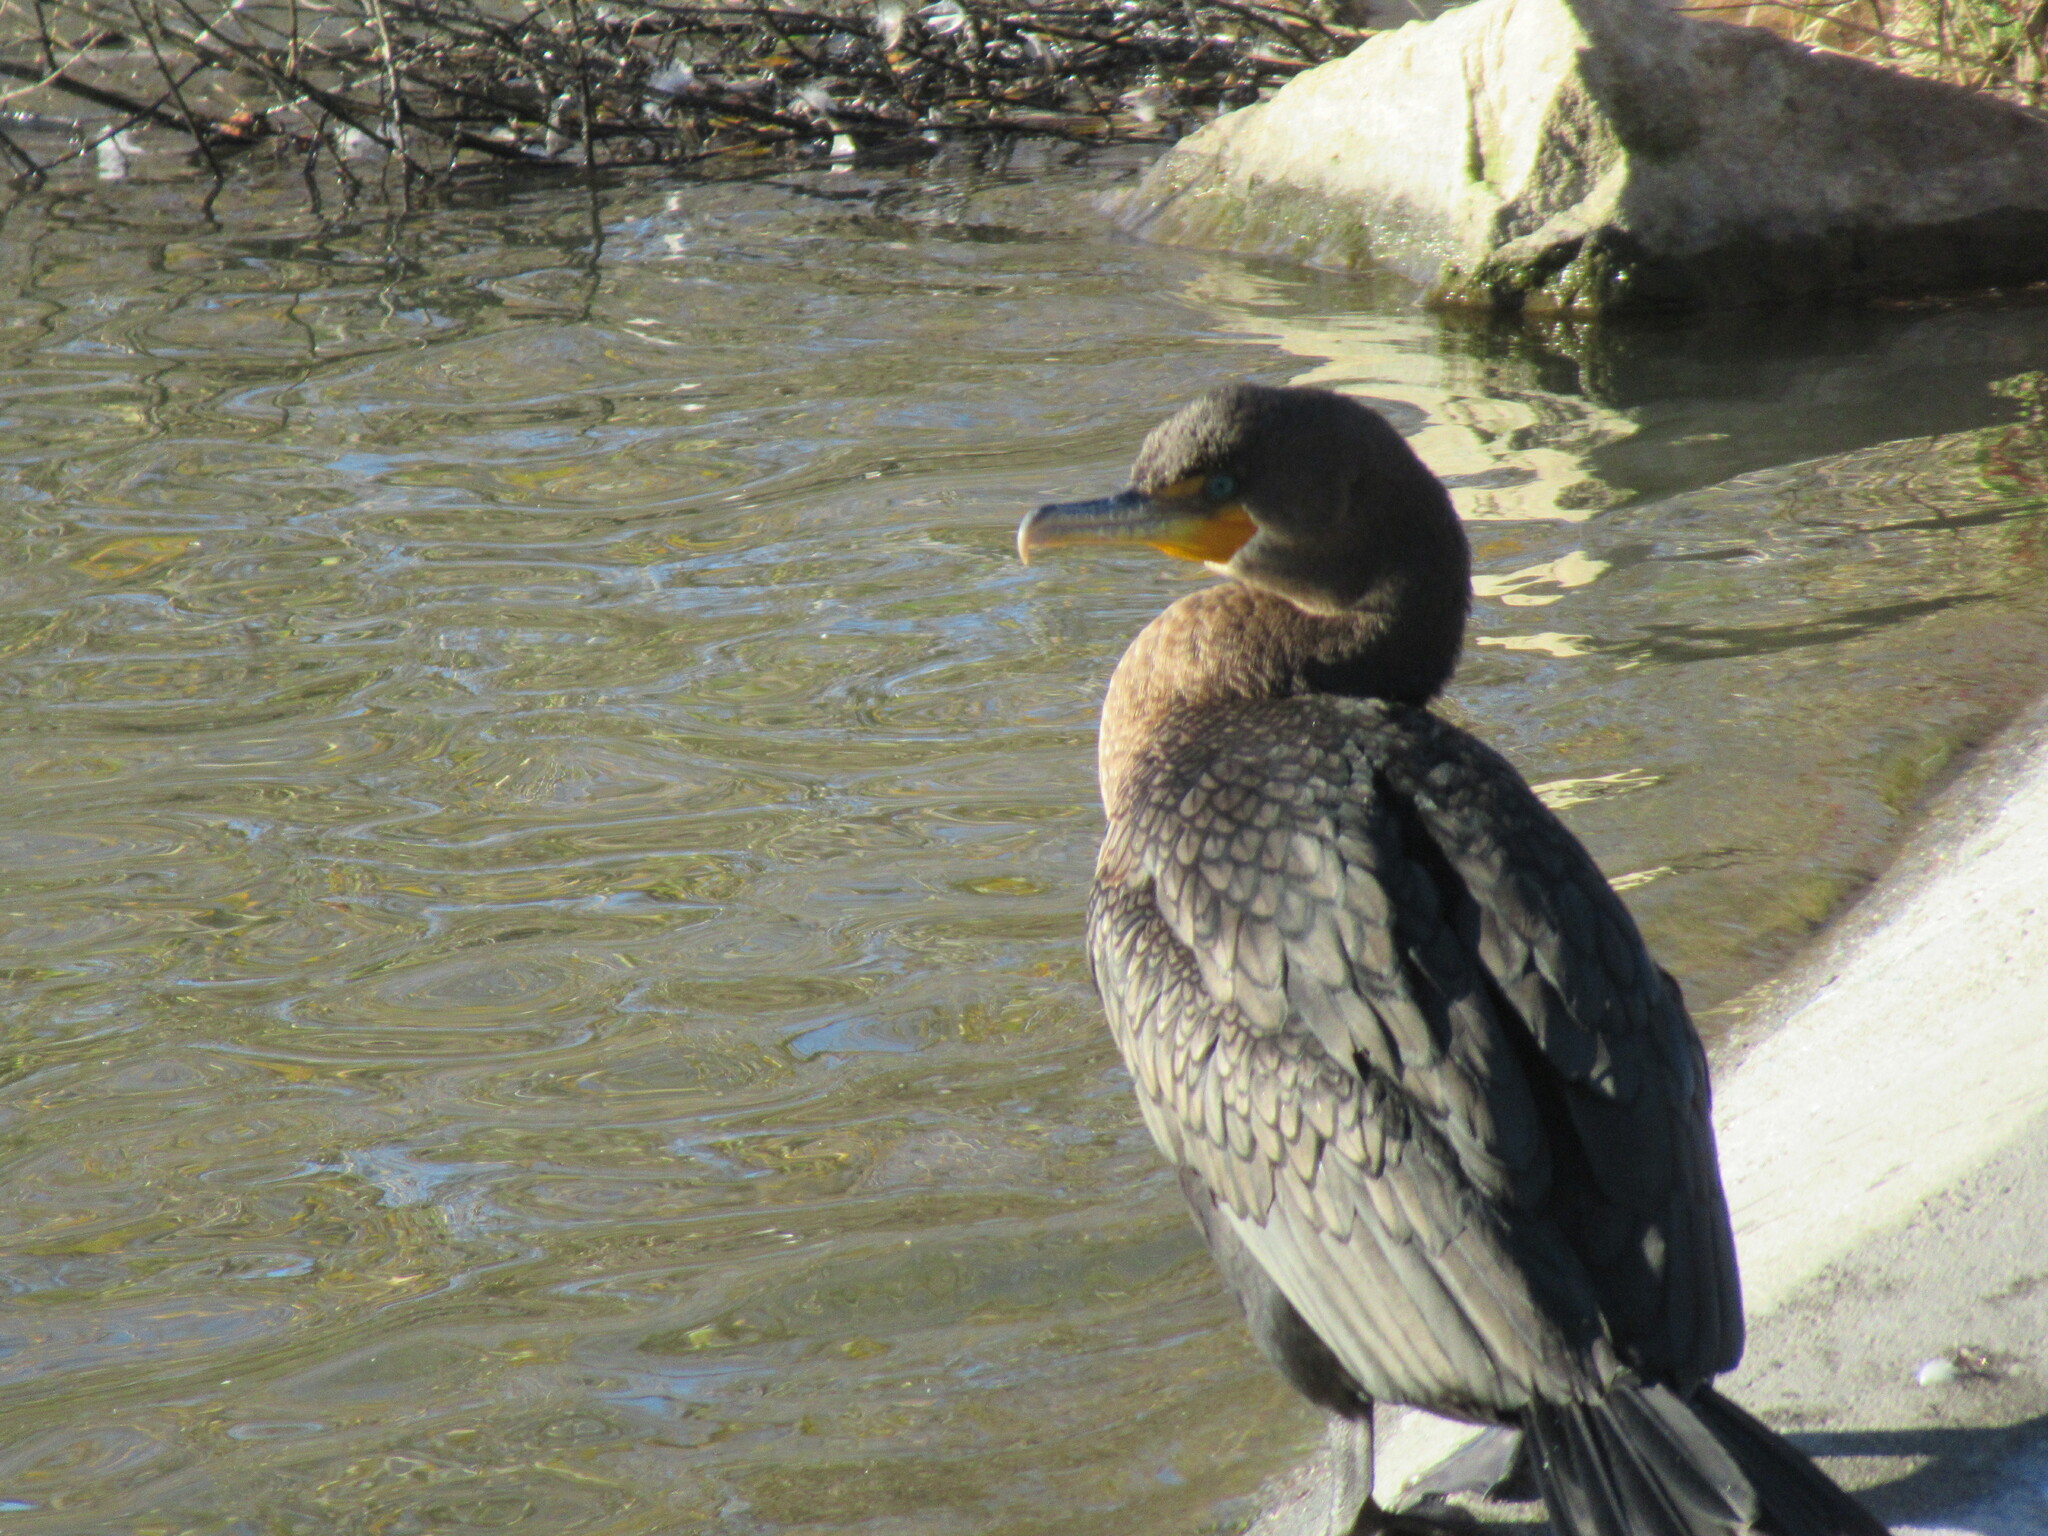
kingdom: Animalia
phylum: Chordata
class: Aves
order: Suliformes
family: Phalacrocoracidae
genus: Phalacrocorax
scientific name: Phalacrocorax auritus
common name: Double-crested cormorant
